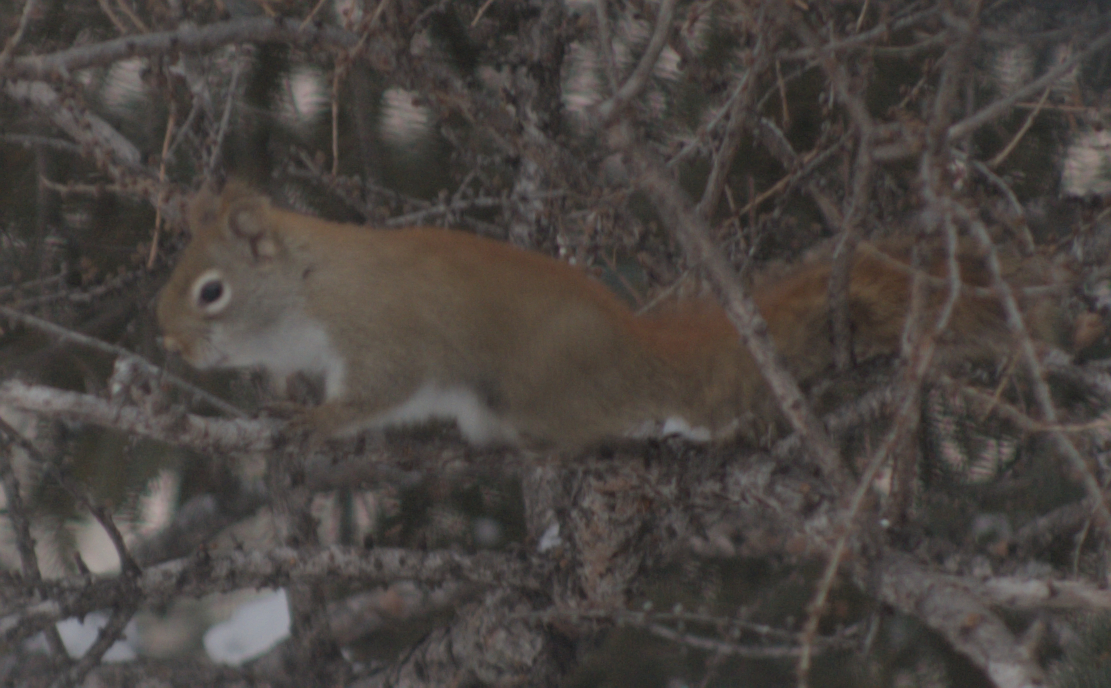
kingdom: Animalia
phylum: Chordata
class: Mammalia
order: Rodentia
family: Sciuridae
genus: Tamiasciurus
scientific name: Tamiasciurus hudsonicus
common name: Red squirrel
